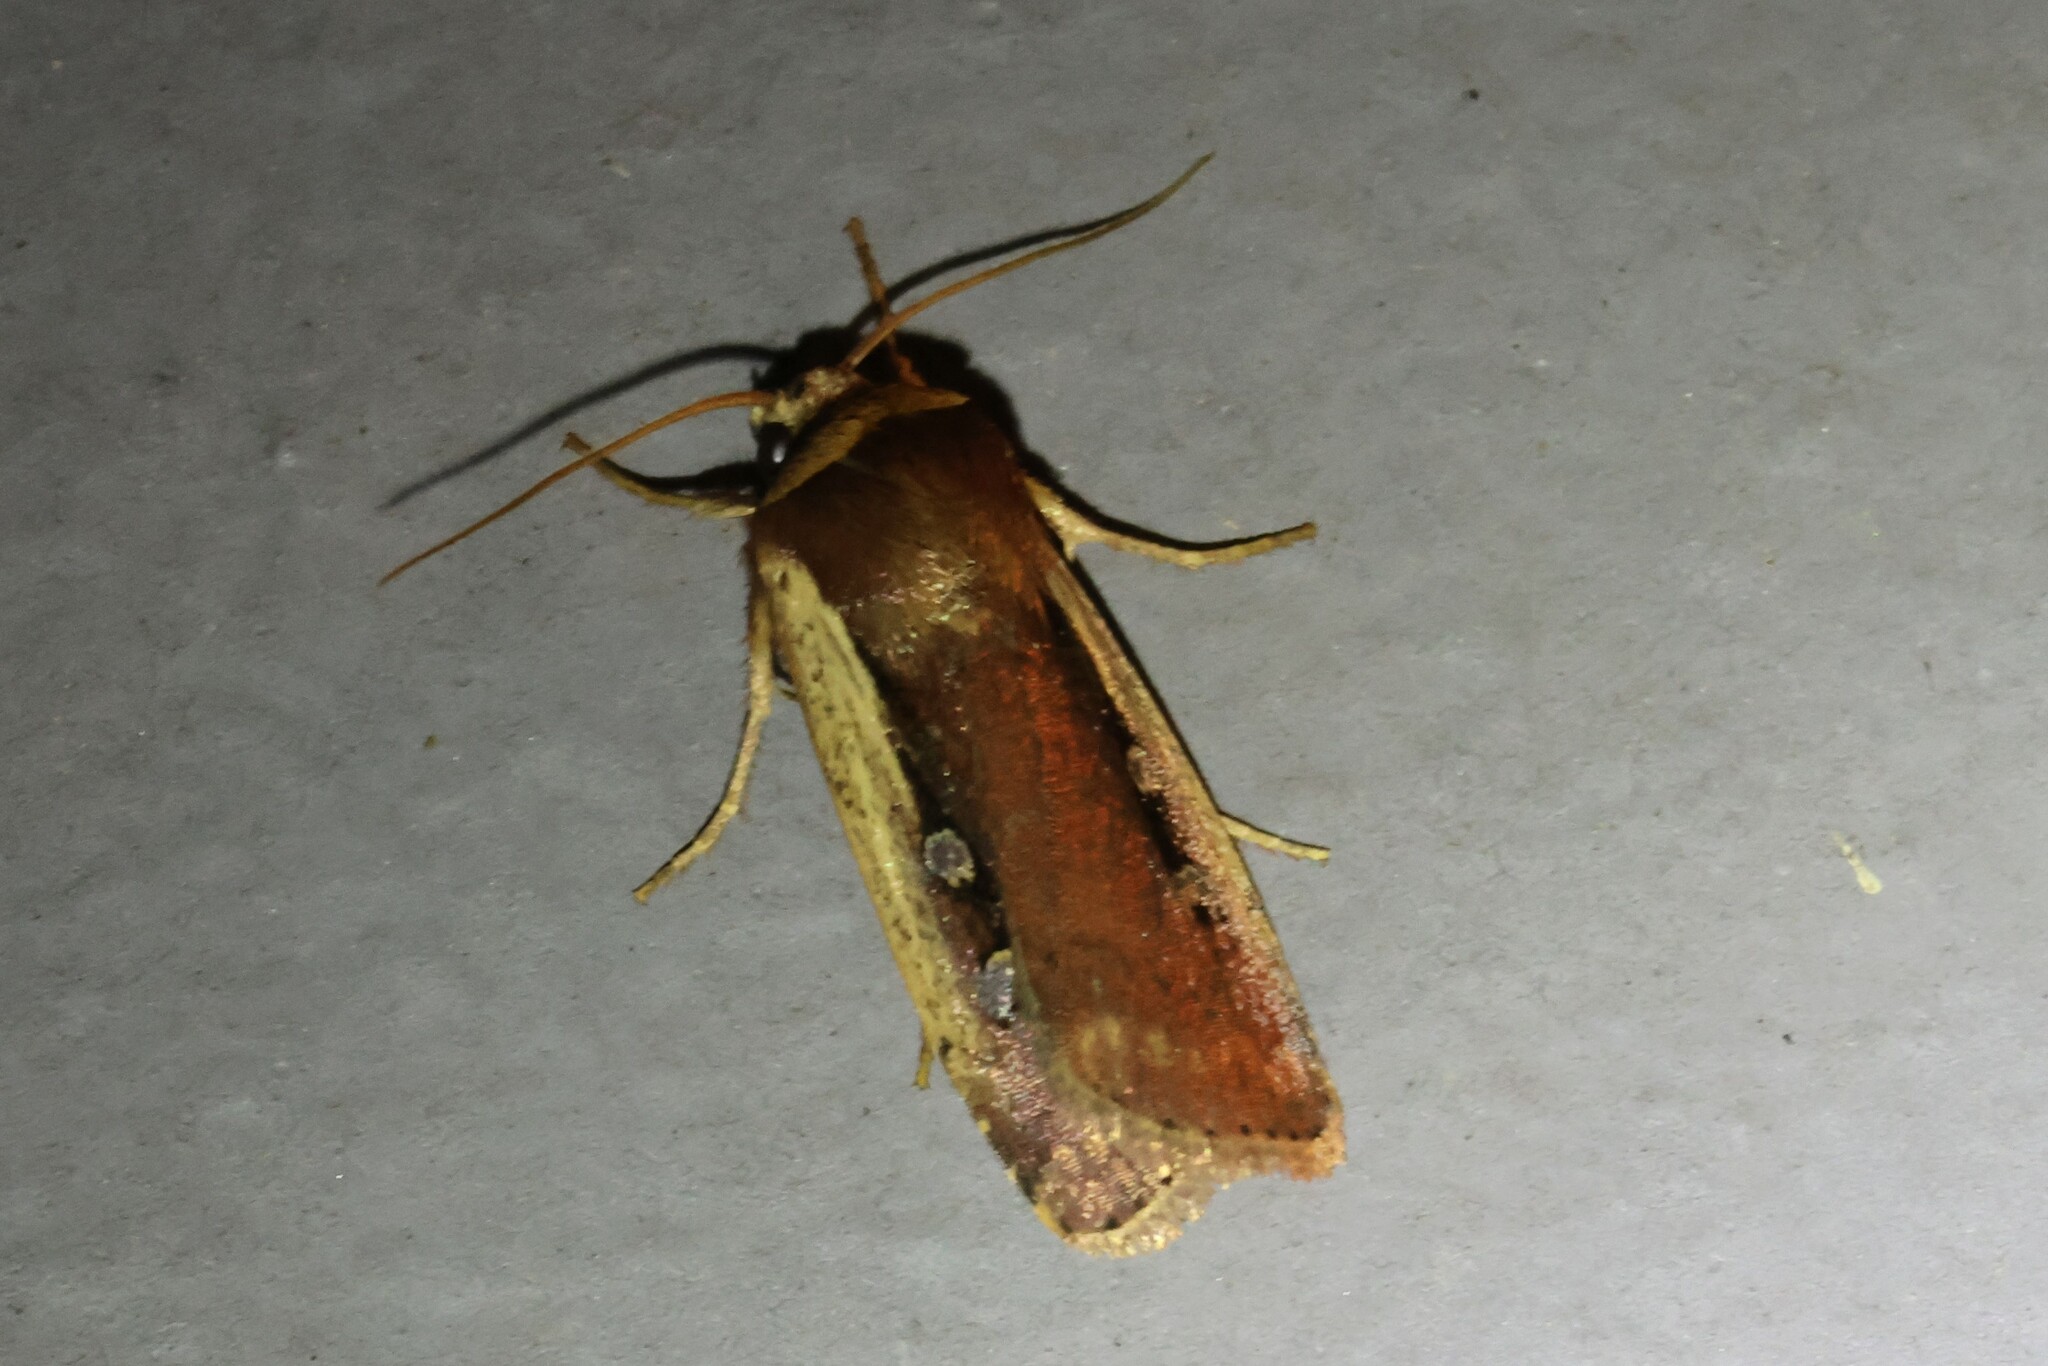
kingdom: Animalia
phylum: Arthropoda
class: Insecta
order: Lepidoptera
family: Noctuidae
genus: Ochropleura
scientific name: Ochropleura implecta
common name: Flame-shouldered dart
